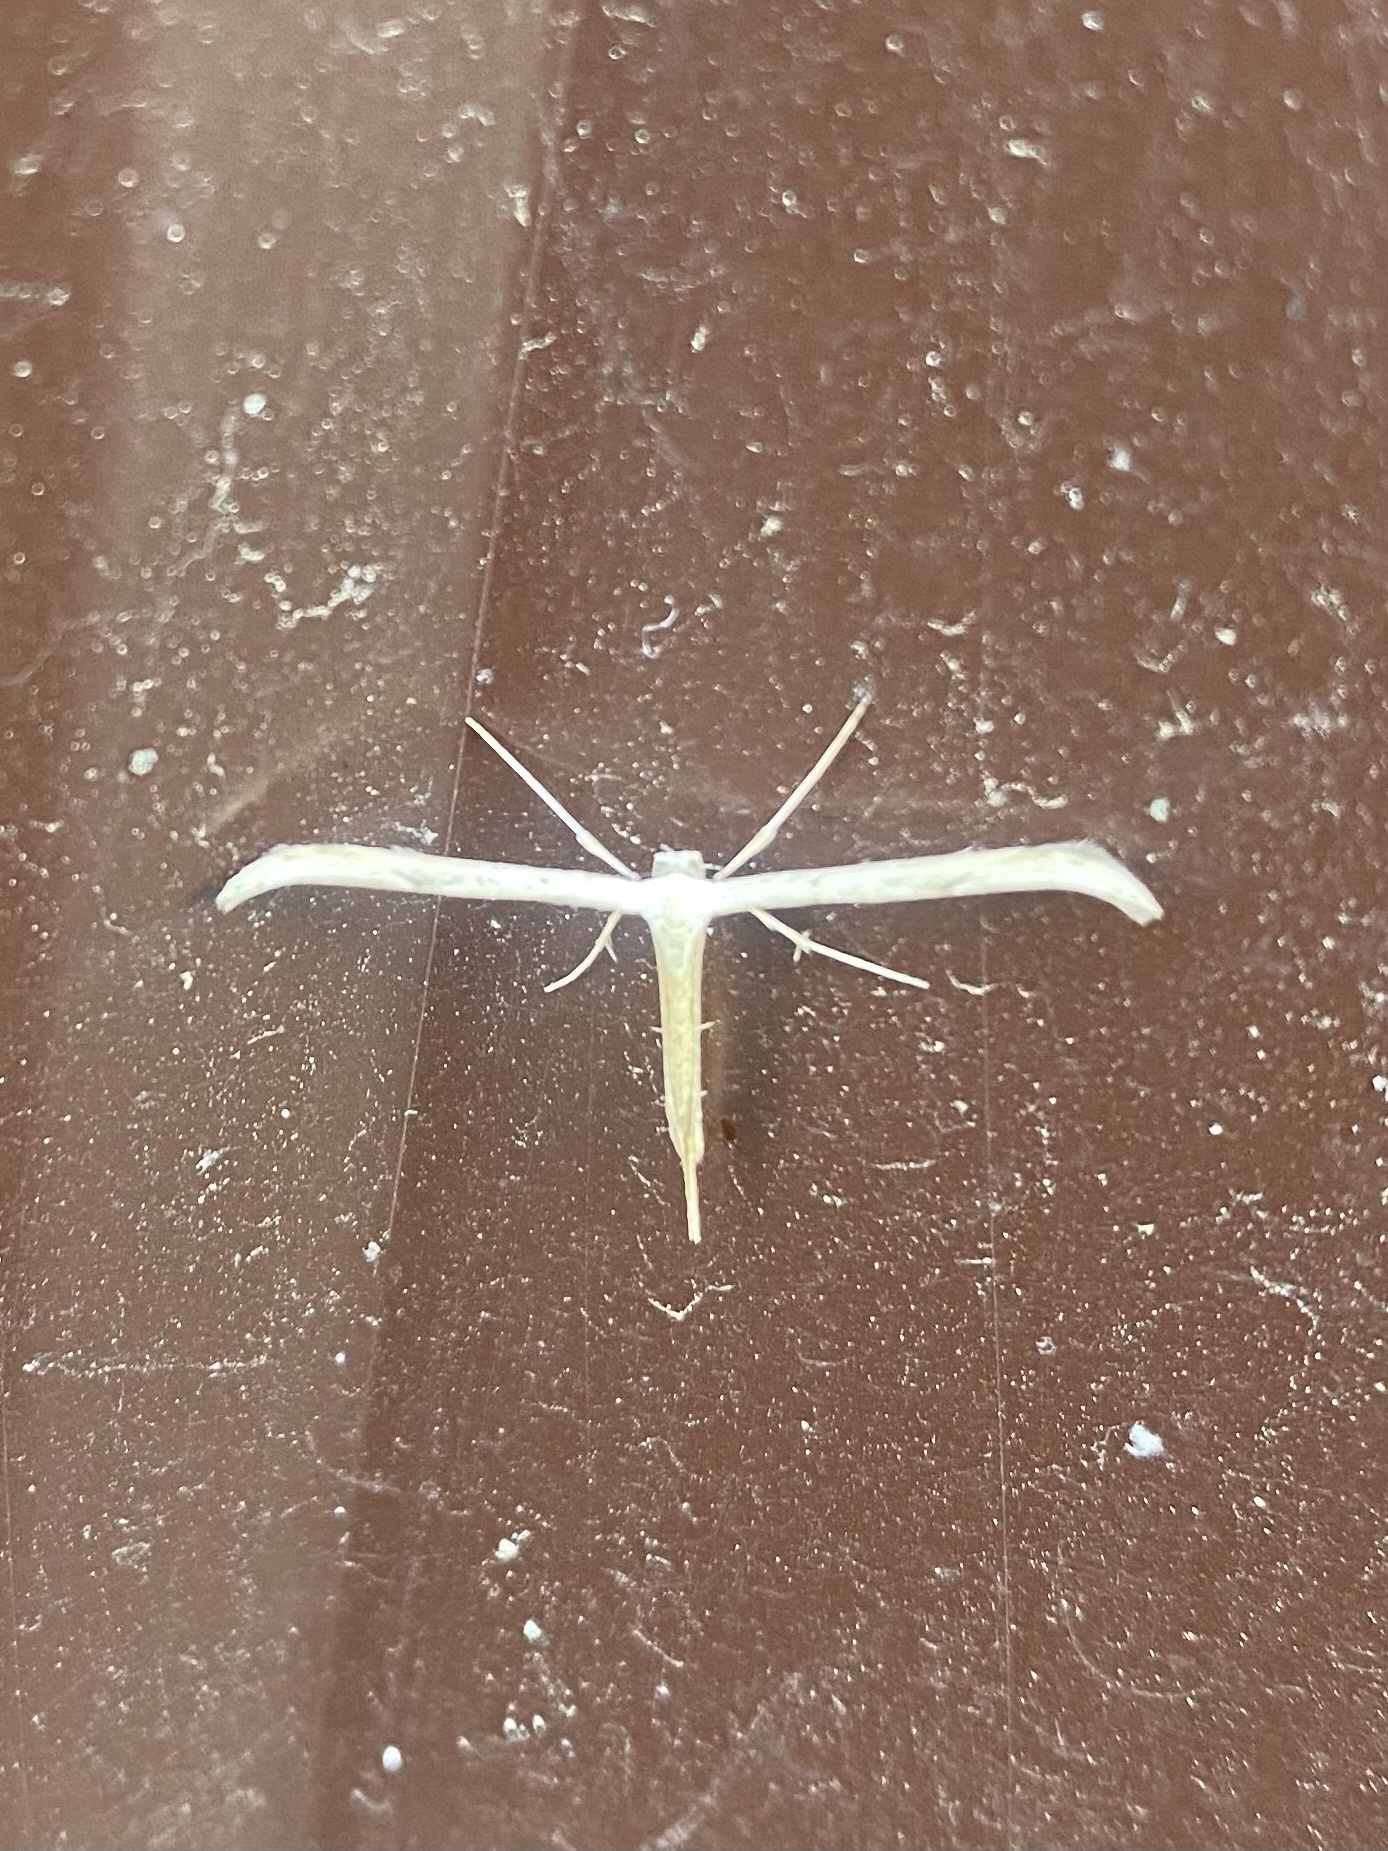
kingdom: Animalia
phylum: Arthropoda
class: Insecta
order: Lepidoptera
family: Pterophoridae
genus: Emmelina
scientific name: Emmelina monodactyla
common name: Common plume
